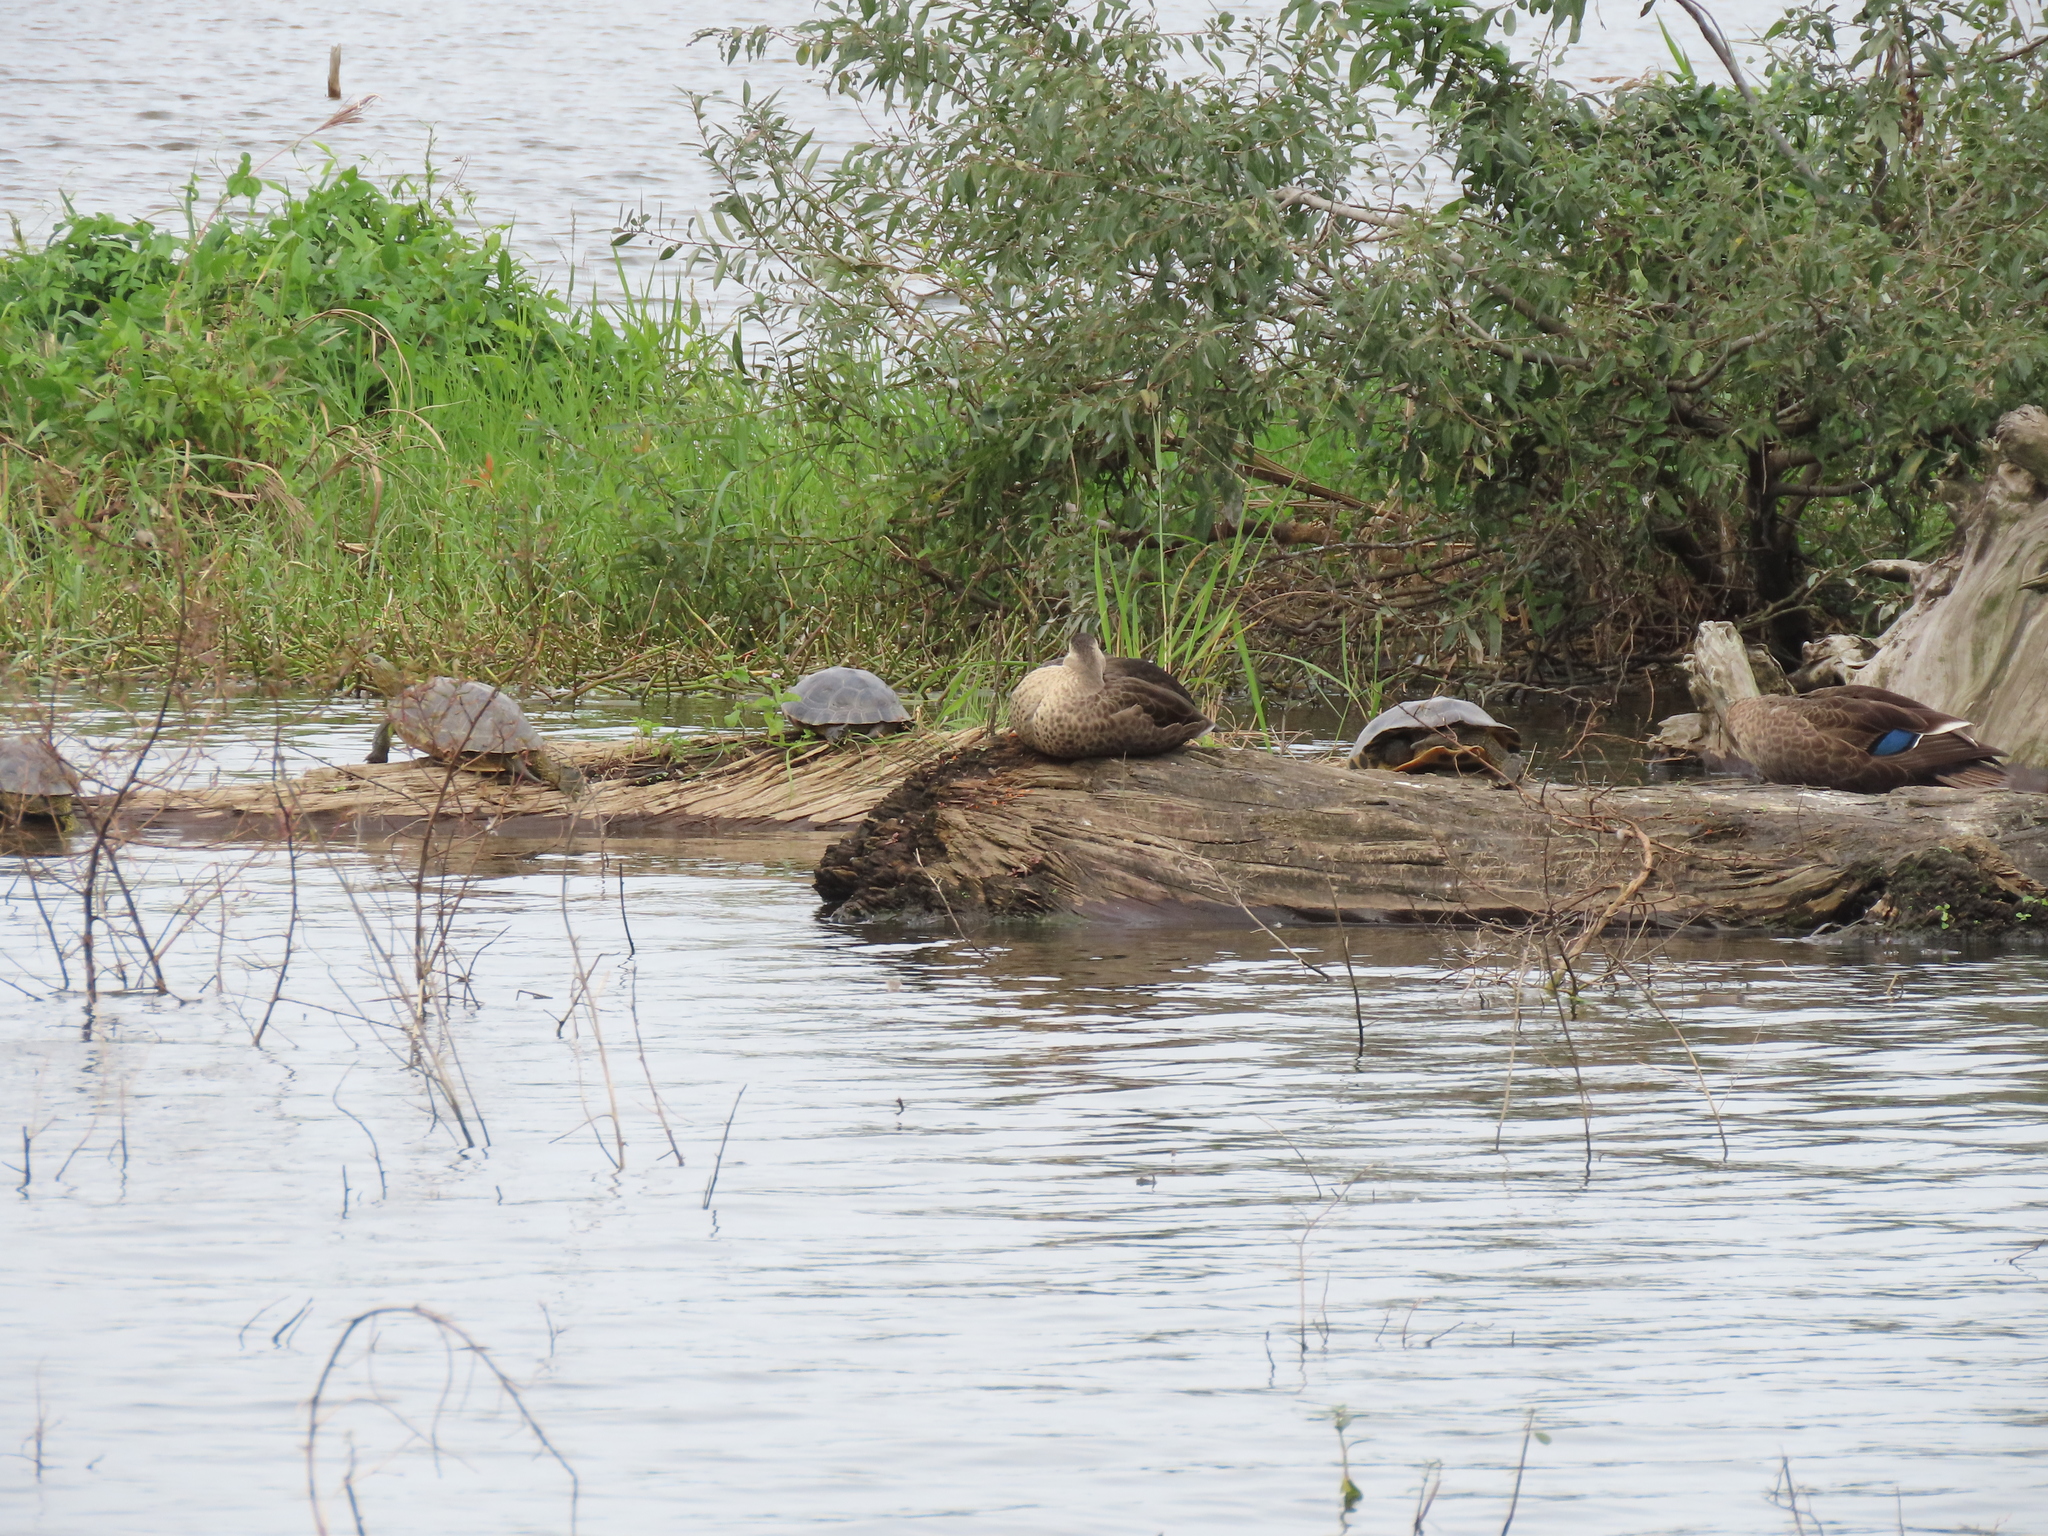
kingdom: Animalia
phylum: Chordata
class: Testudines
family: Geoemydidae
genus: Mauremys
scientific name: Mauremys sinensis
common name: Chinese stripe-necked turtle
